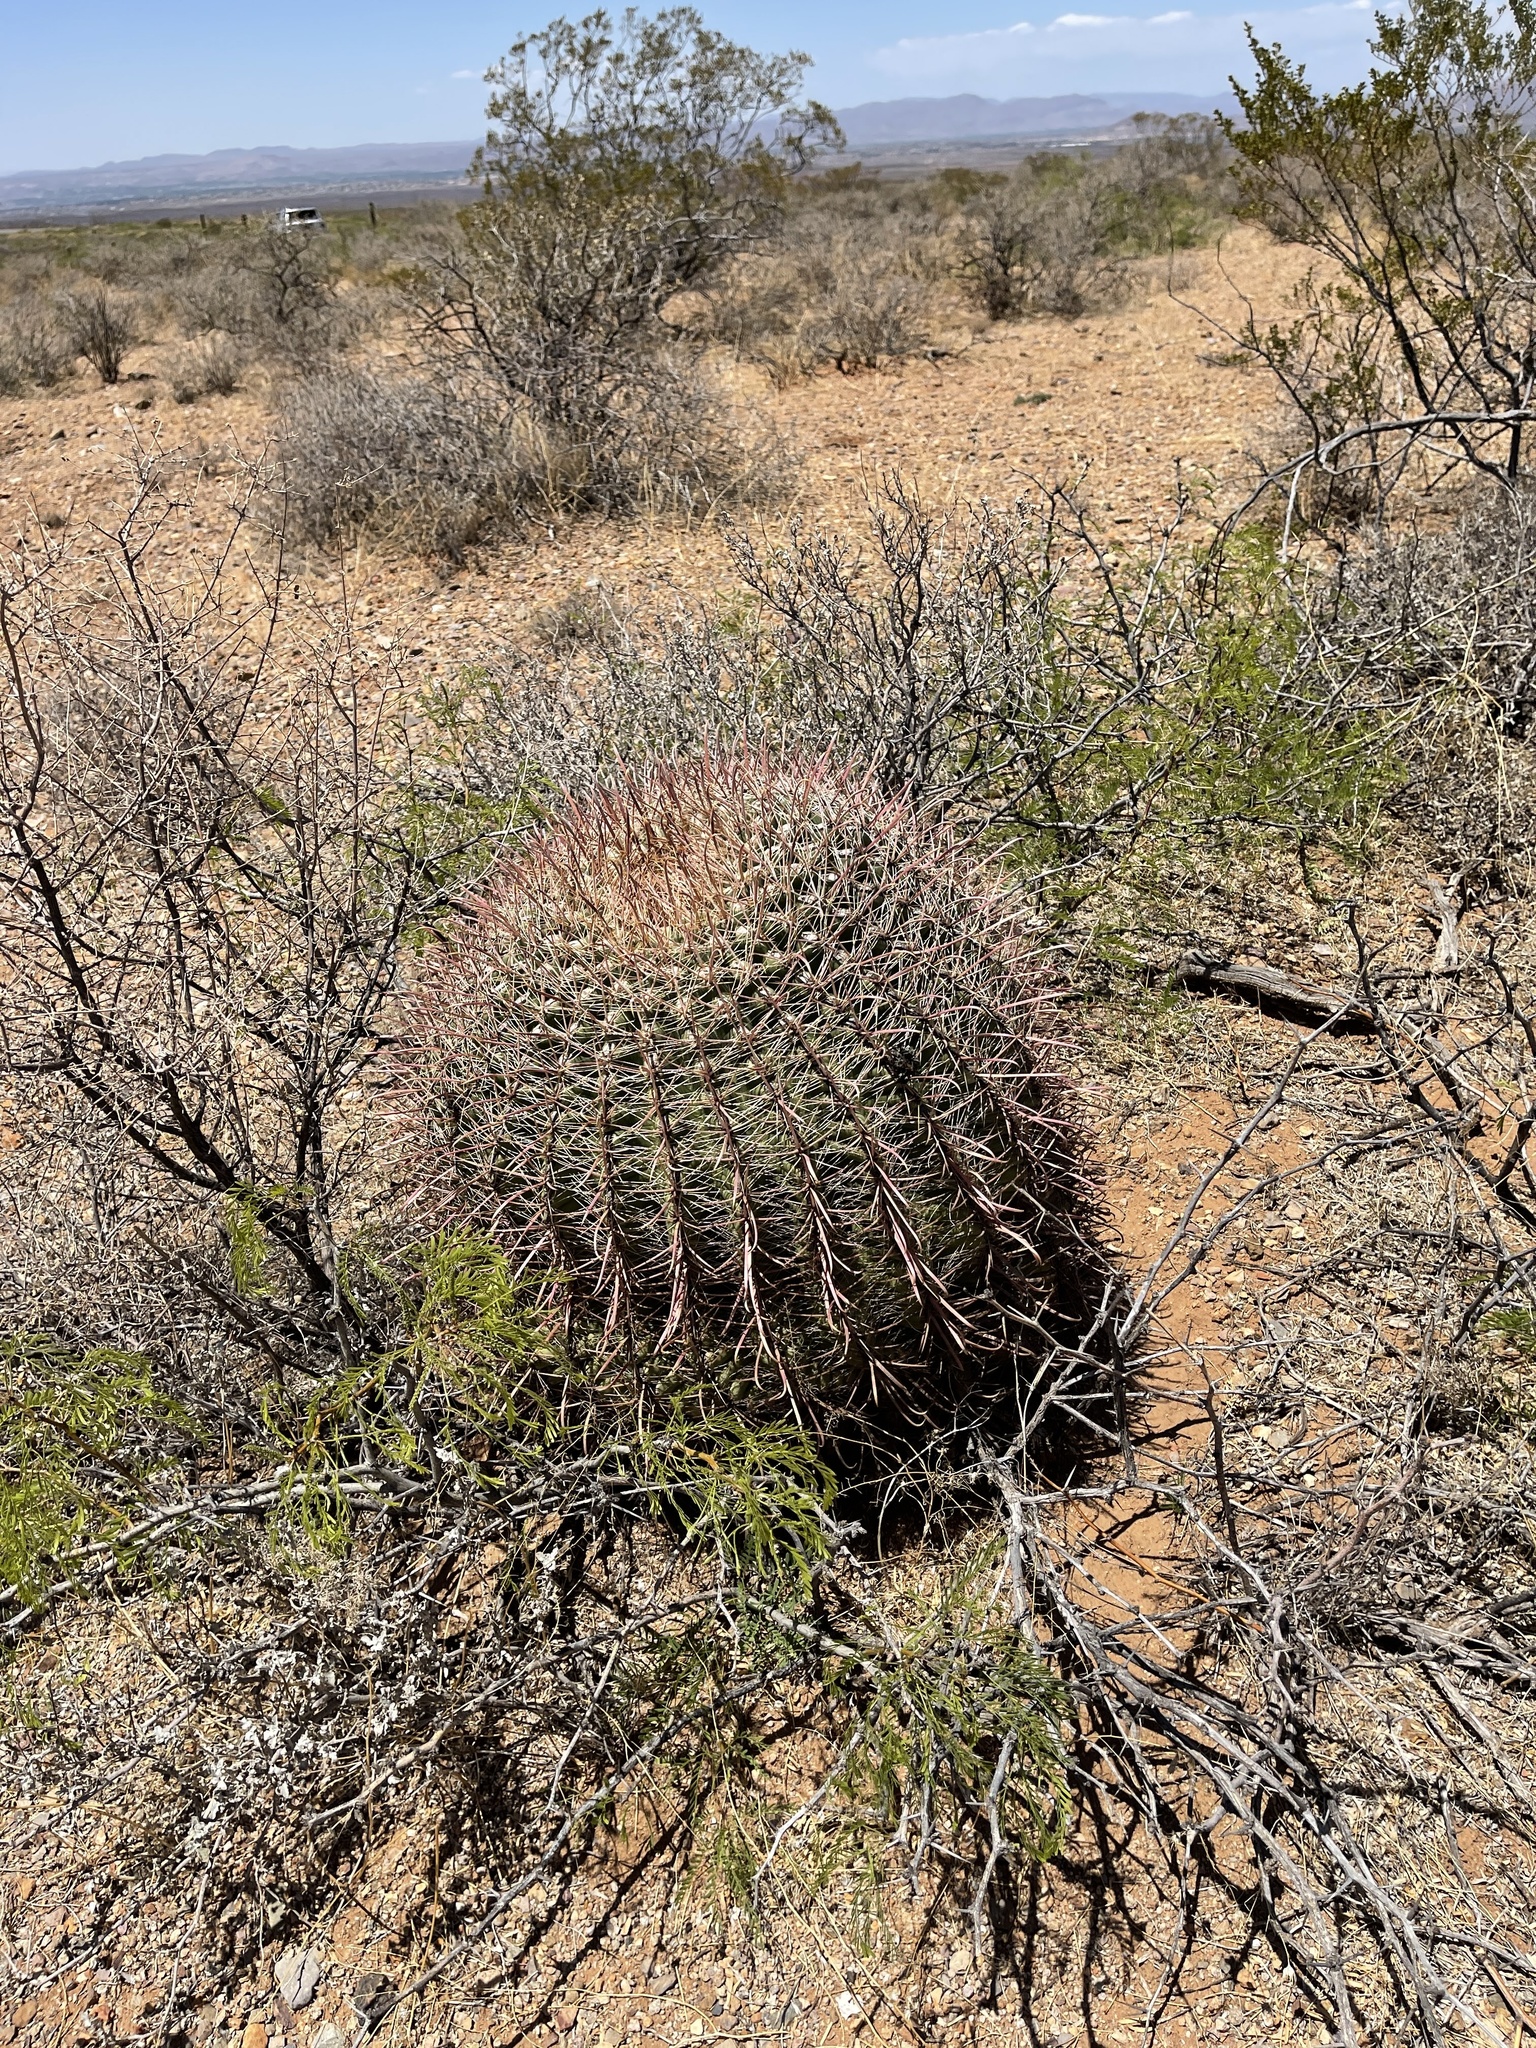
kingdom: Plantae
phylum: Tracheophyta
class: Magnoliopsida
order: Caryophyllales
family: Cactaceae
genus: Ferocactus
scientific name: Ferocactus wislizeni
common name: Candy barrel cactus
